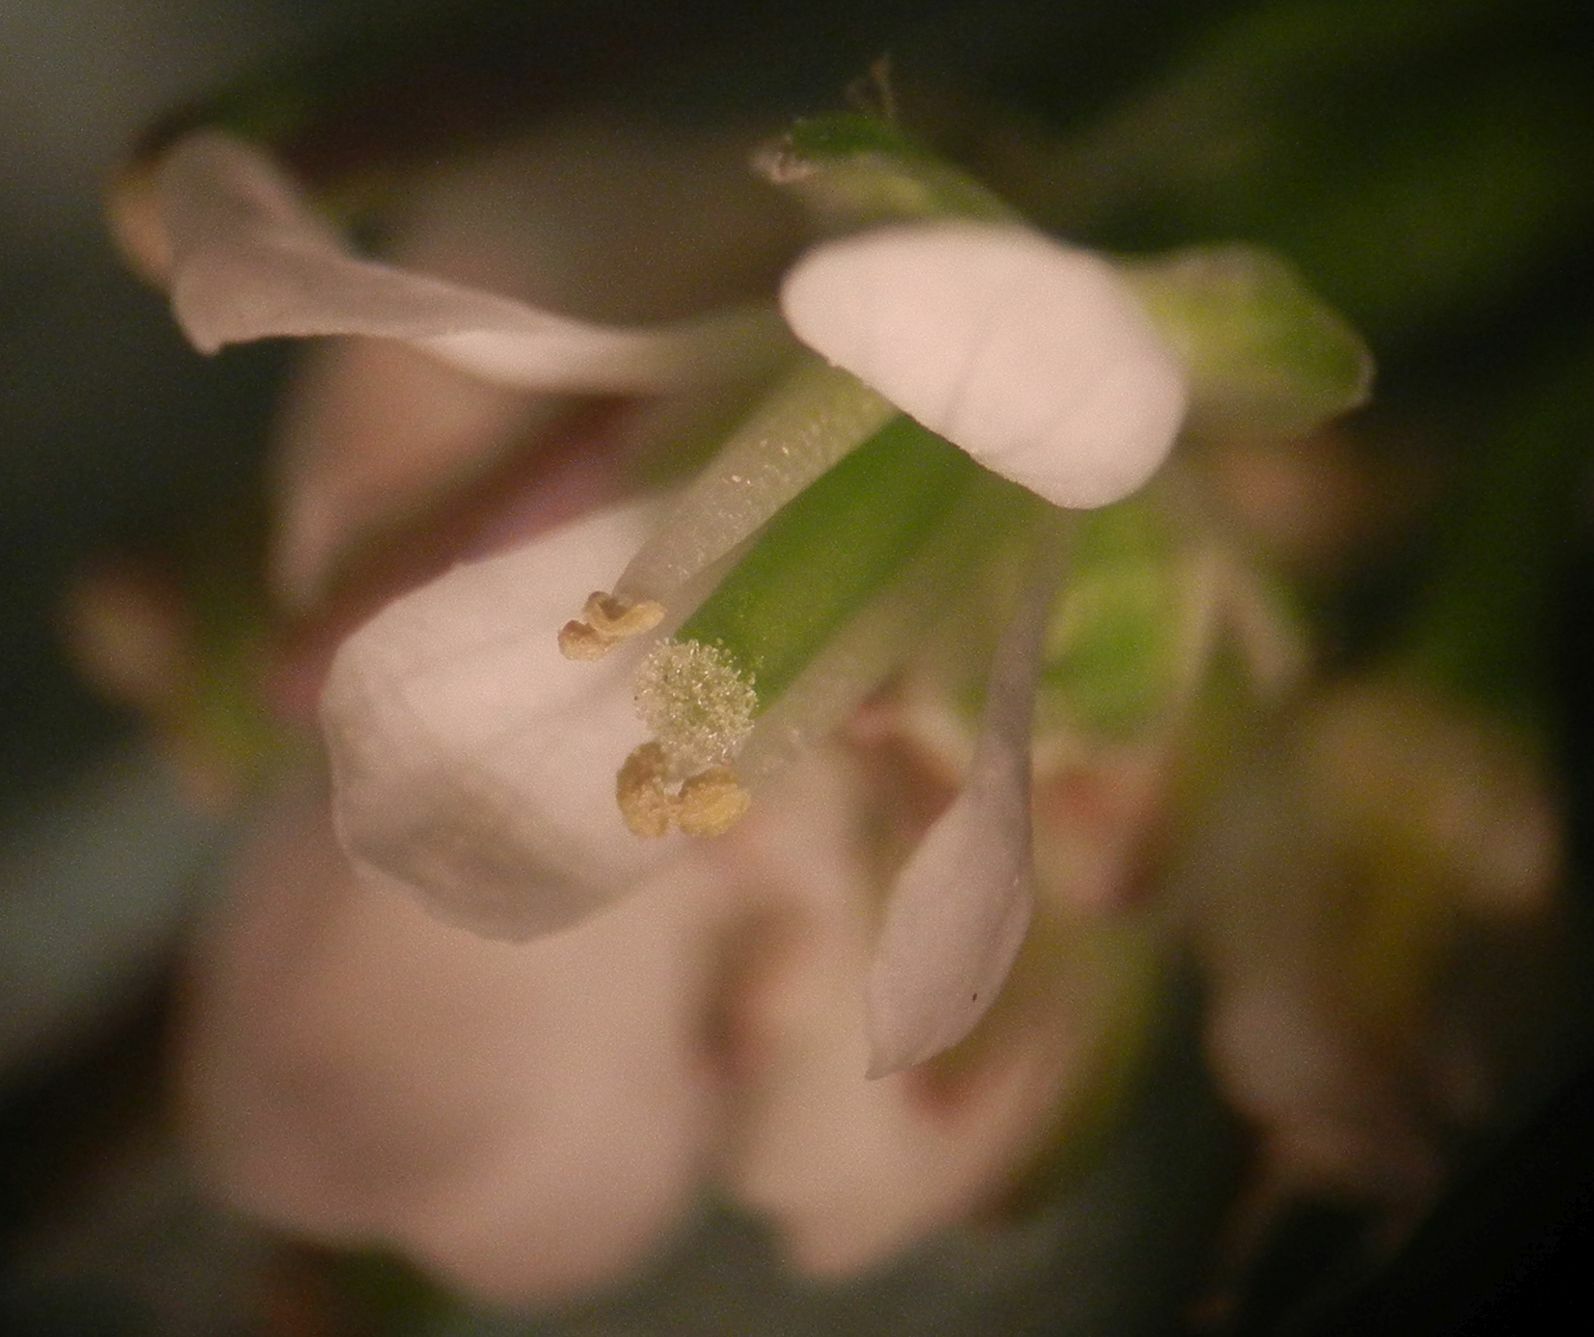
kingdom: Plantae
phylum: Tracheophyta
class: Magnoliopsida
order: Brassicales
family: Brassicaceae
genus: Cardamine
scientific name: Cardamine hirsuta
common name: Hairy bittercress
